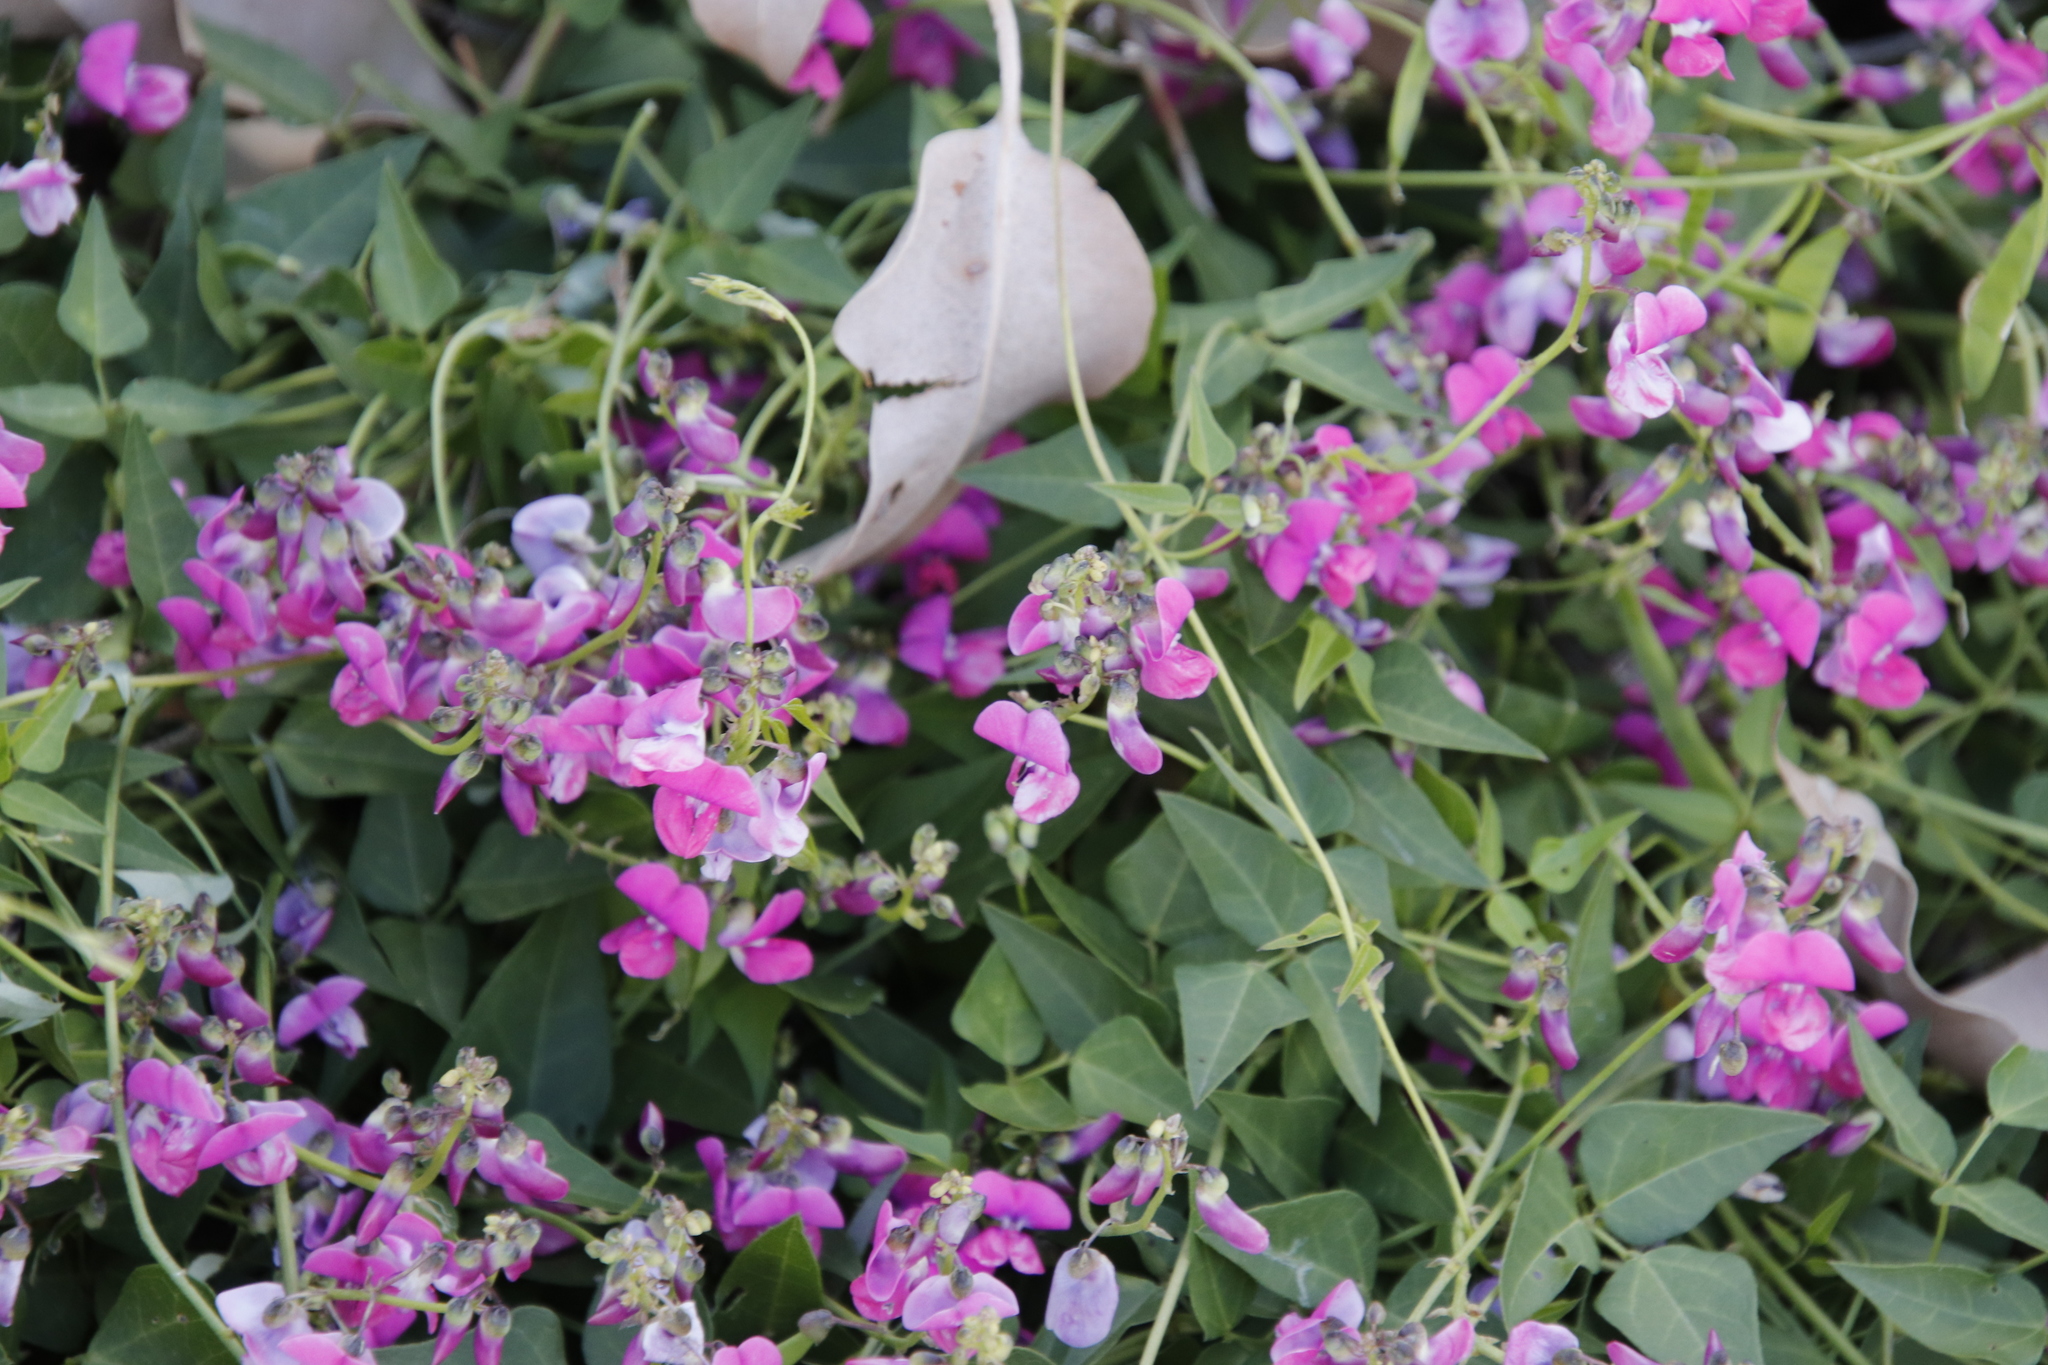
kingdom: Plantae
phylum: Tracheophyta
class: Magnoliopsida
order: Fabales
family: Fabaceae
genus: Dipogon
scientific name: Dipogon lignosus
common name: Okie bean
